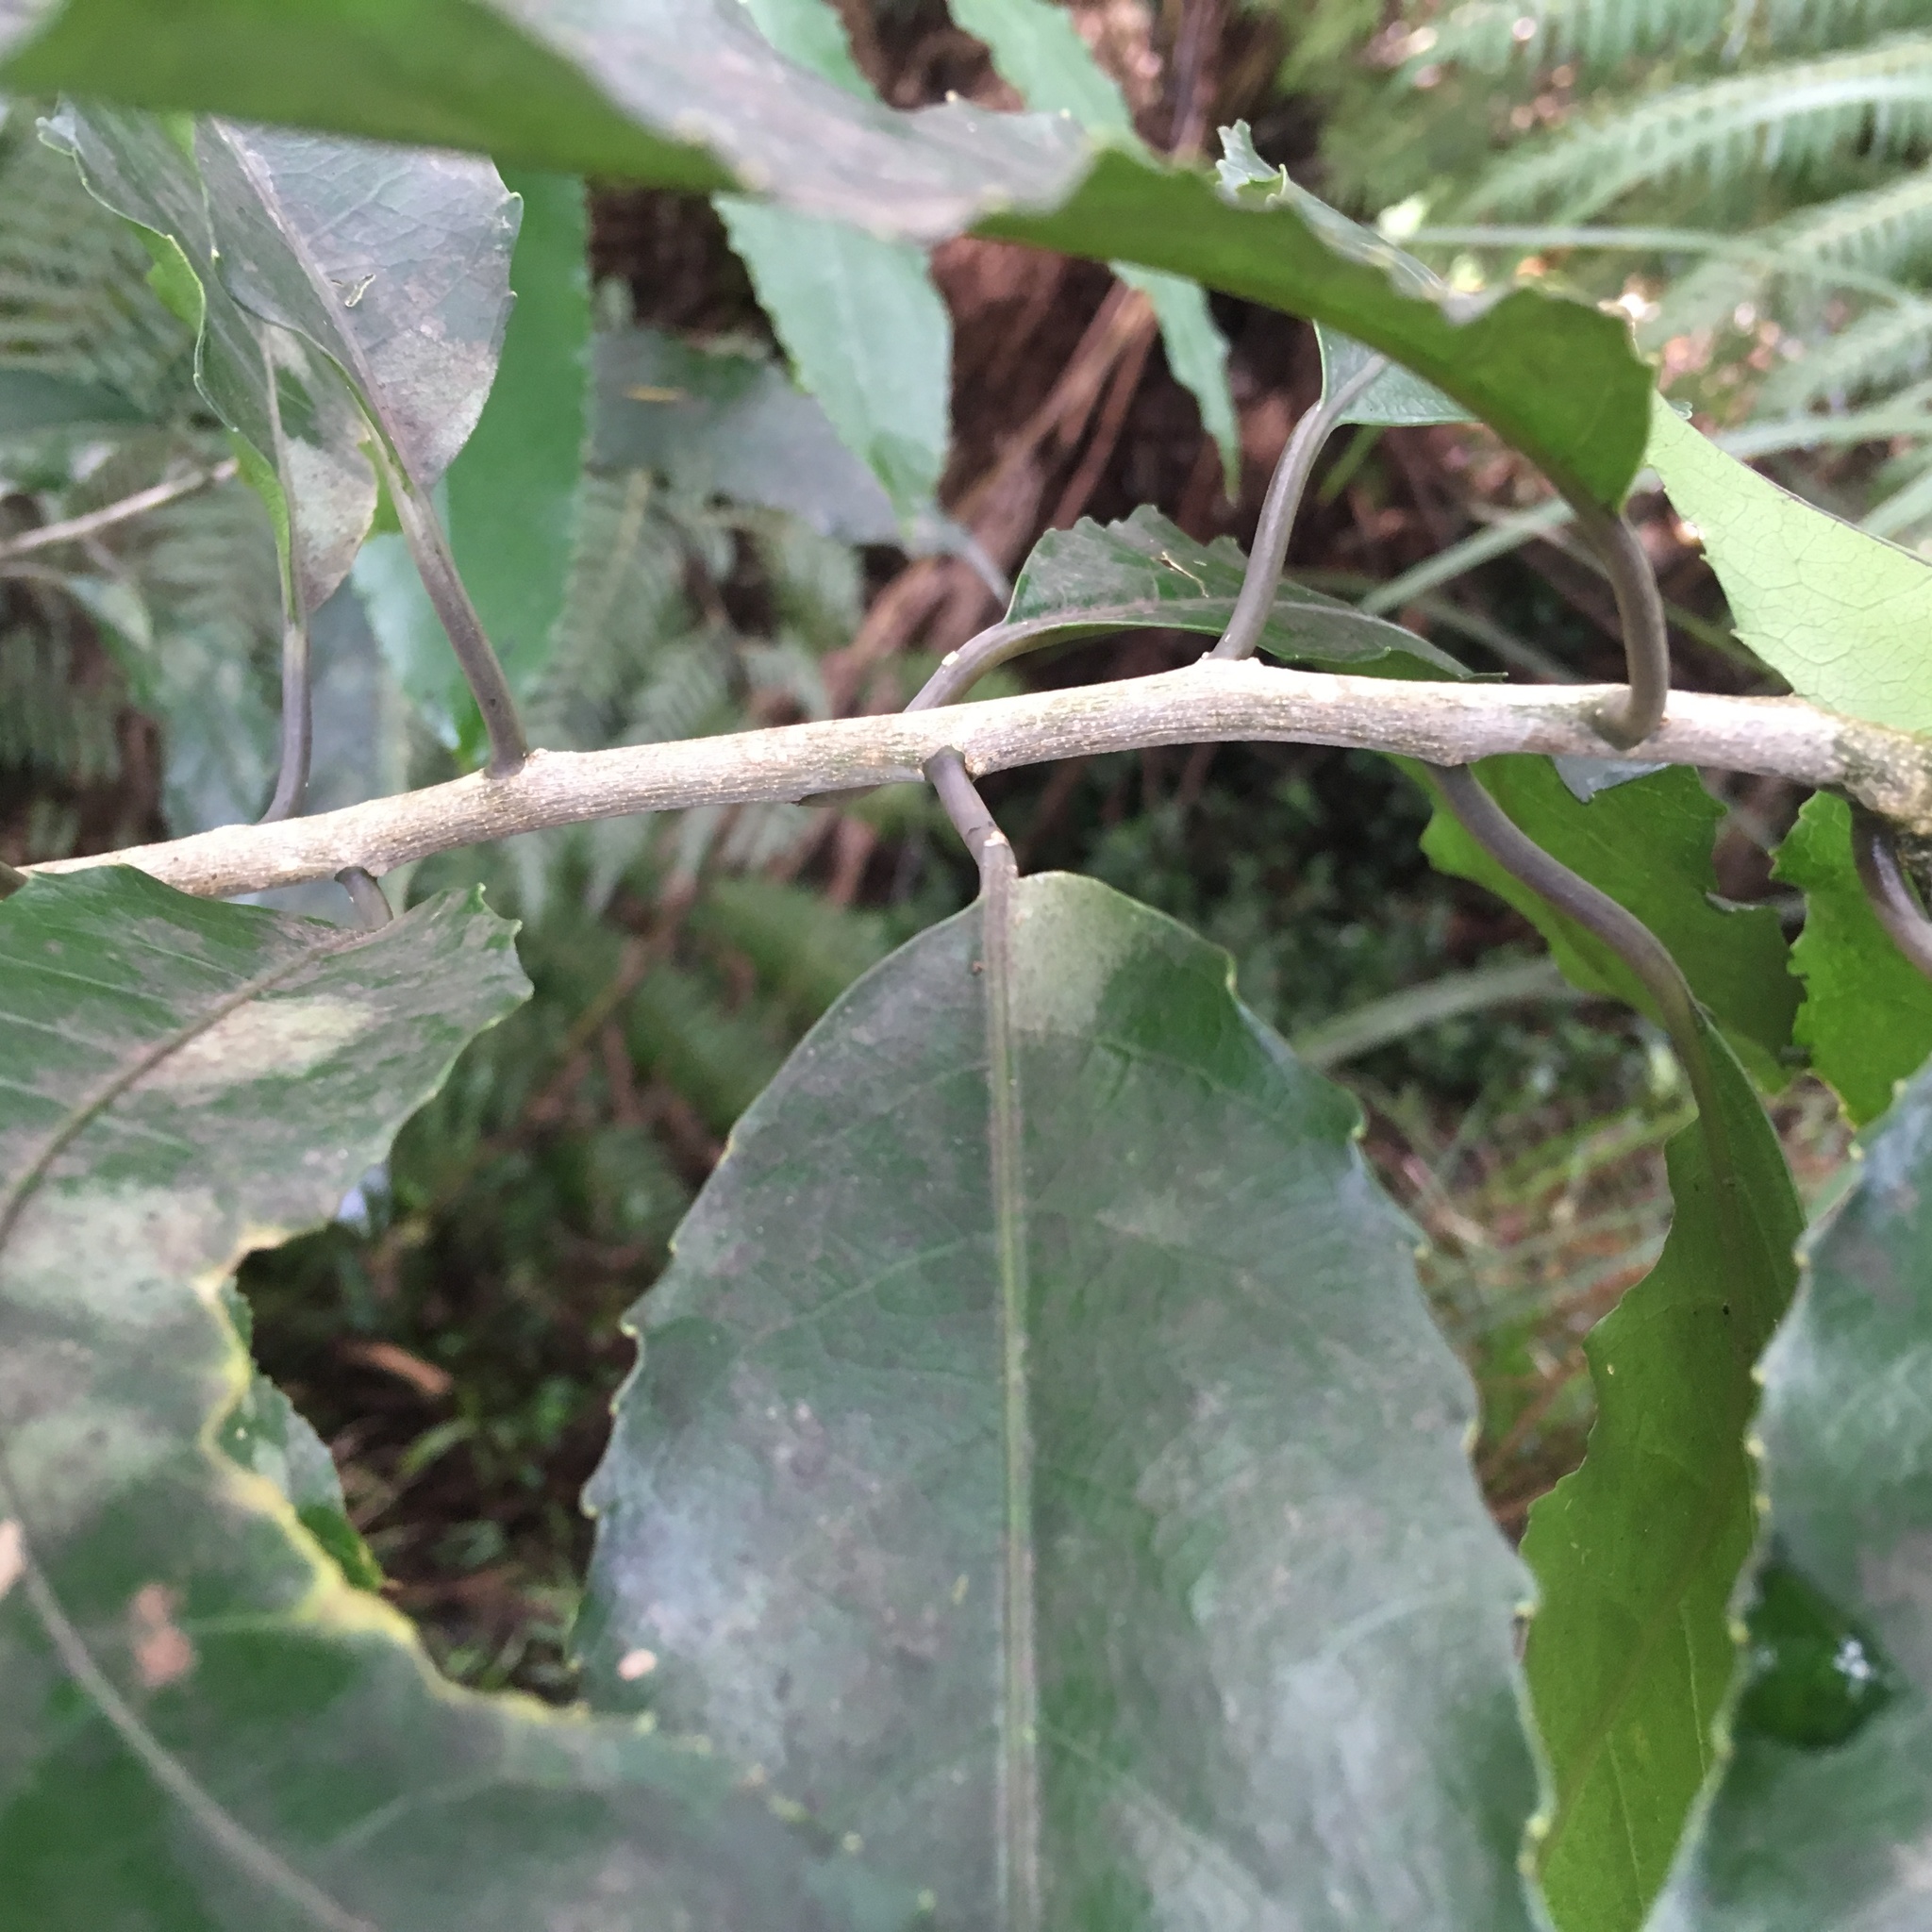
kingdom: Plantae
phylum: Tracheophyta
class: Magnoliopsida
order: Malpighiales
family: Violaceae
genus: Melicytus
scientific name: Melicytus ramiflorus
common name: Mahoe
